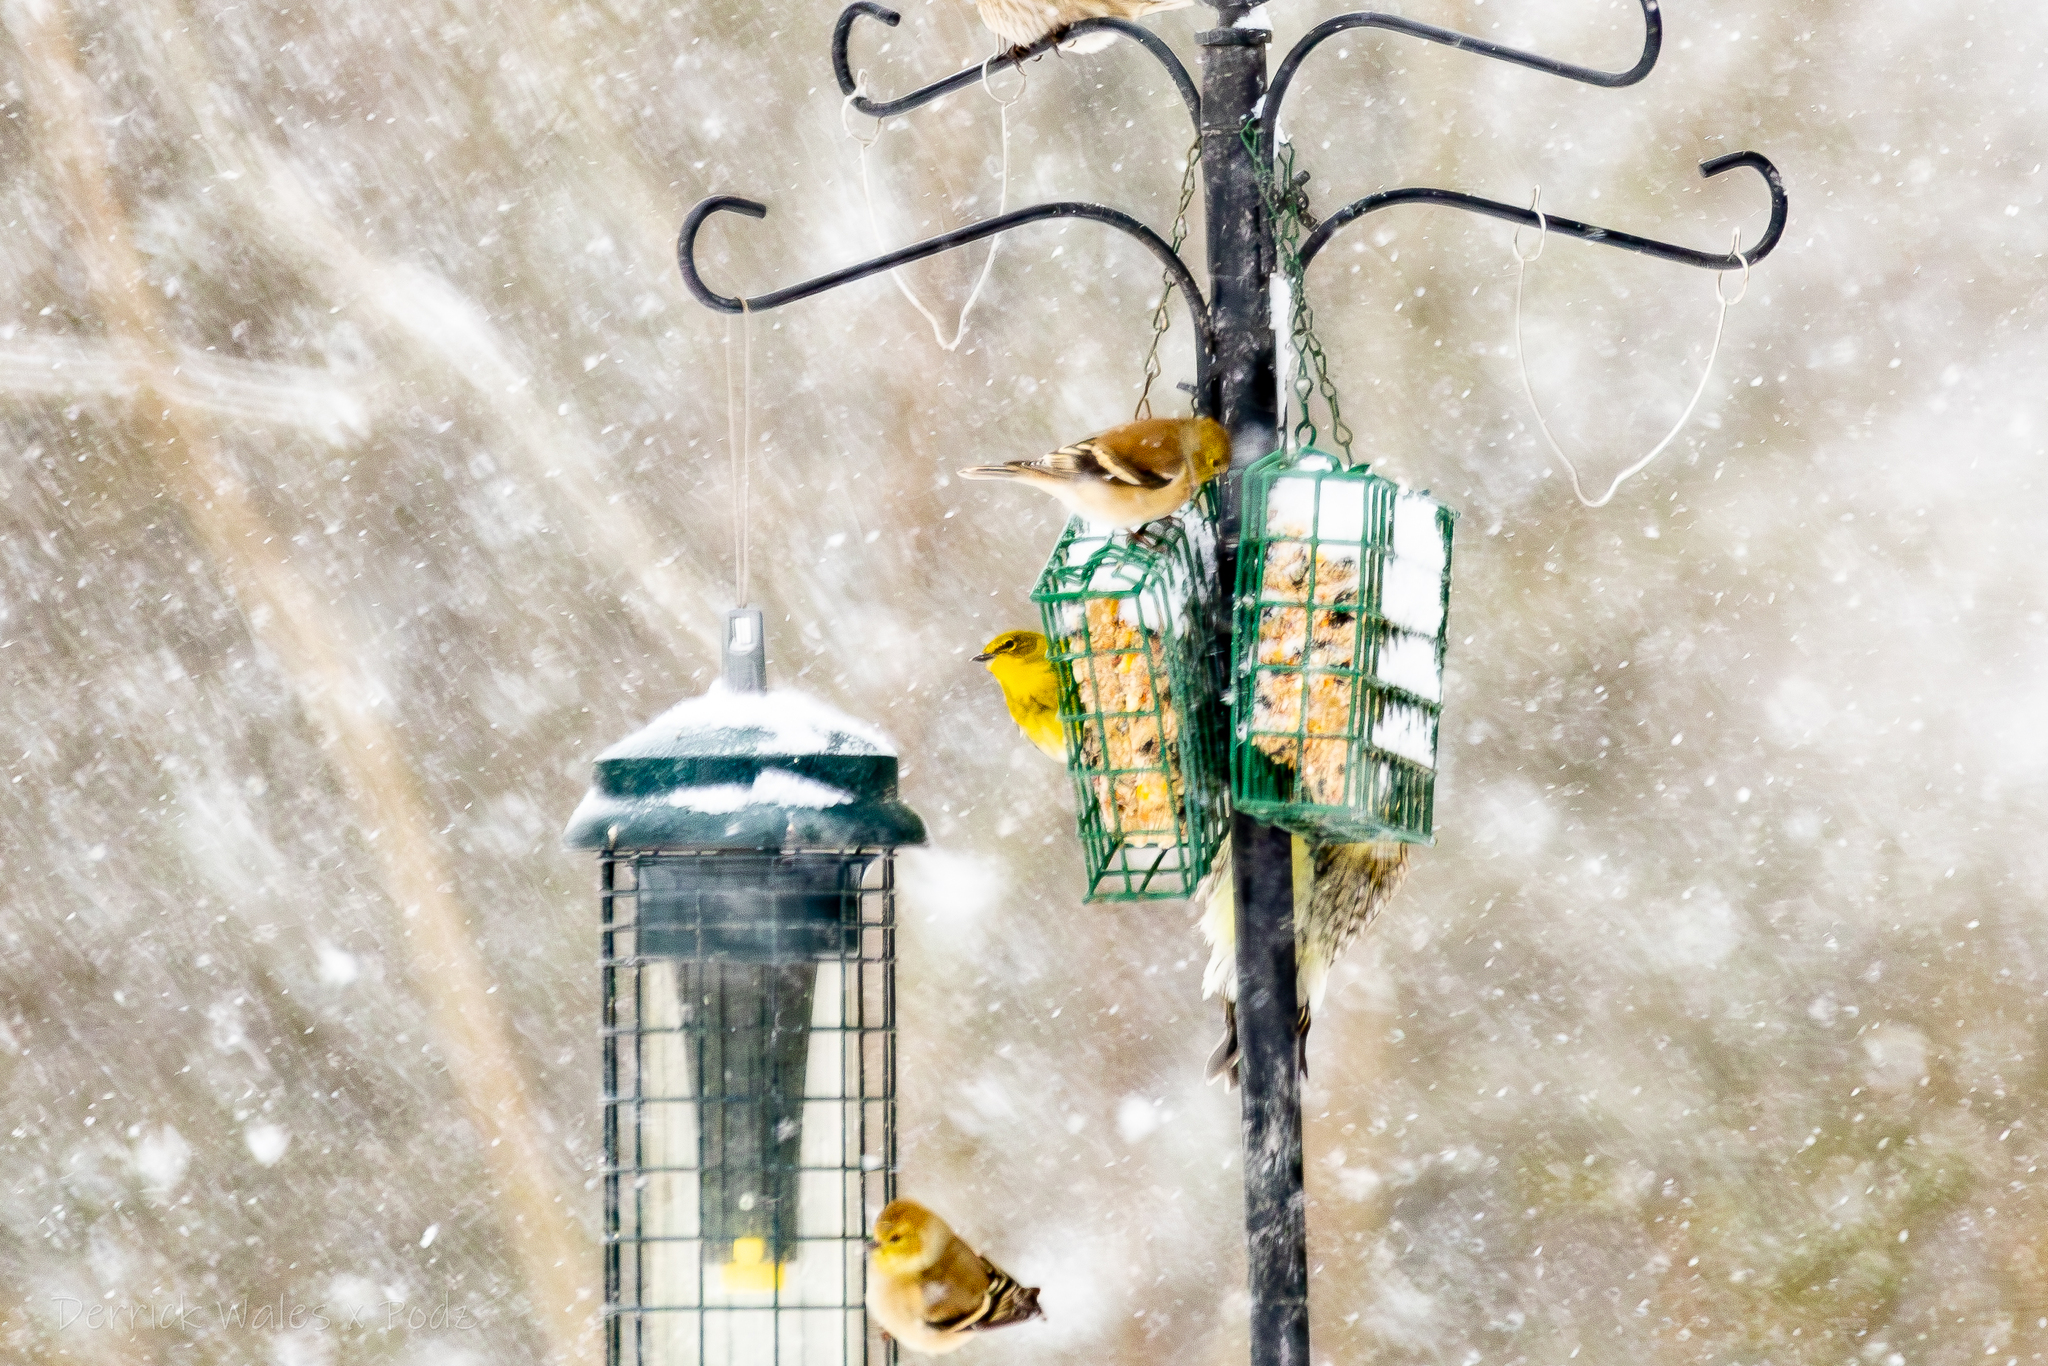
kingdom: Animalia
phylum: Chordata
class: Aves
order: Passeriformes
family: Parulidae
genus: Setophaga
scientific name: Setophaga pinus
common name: Pine warbler
